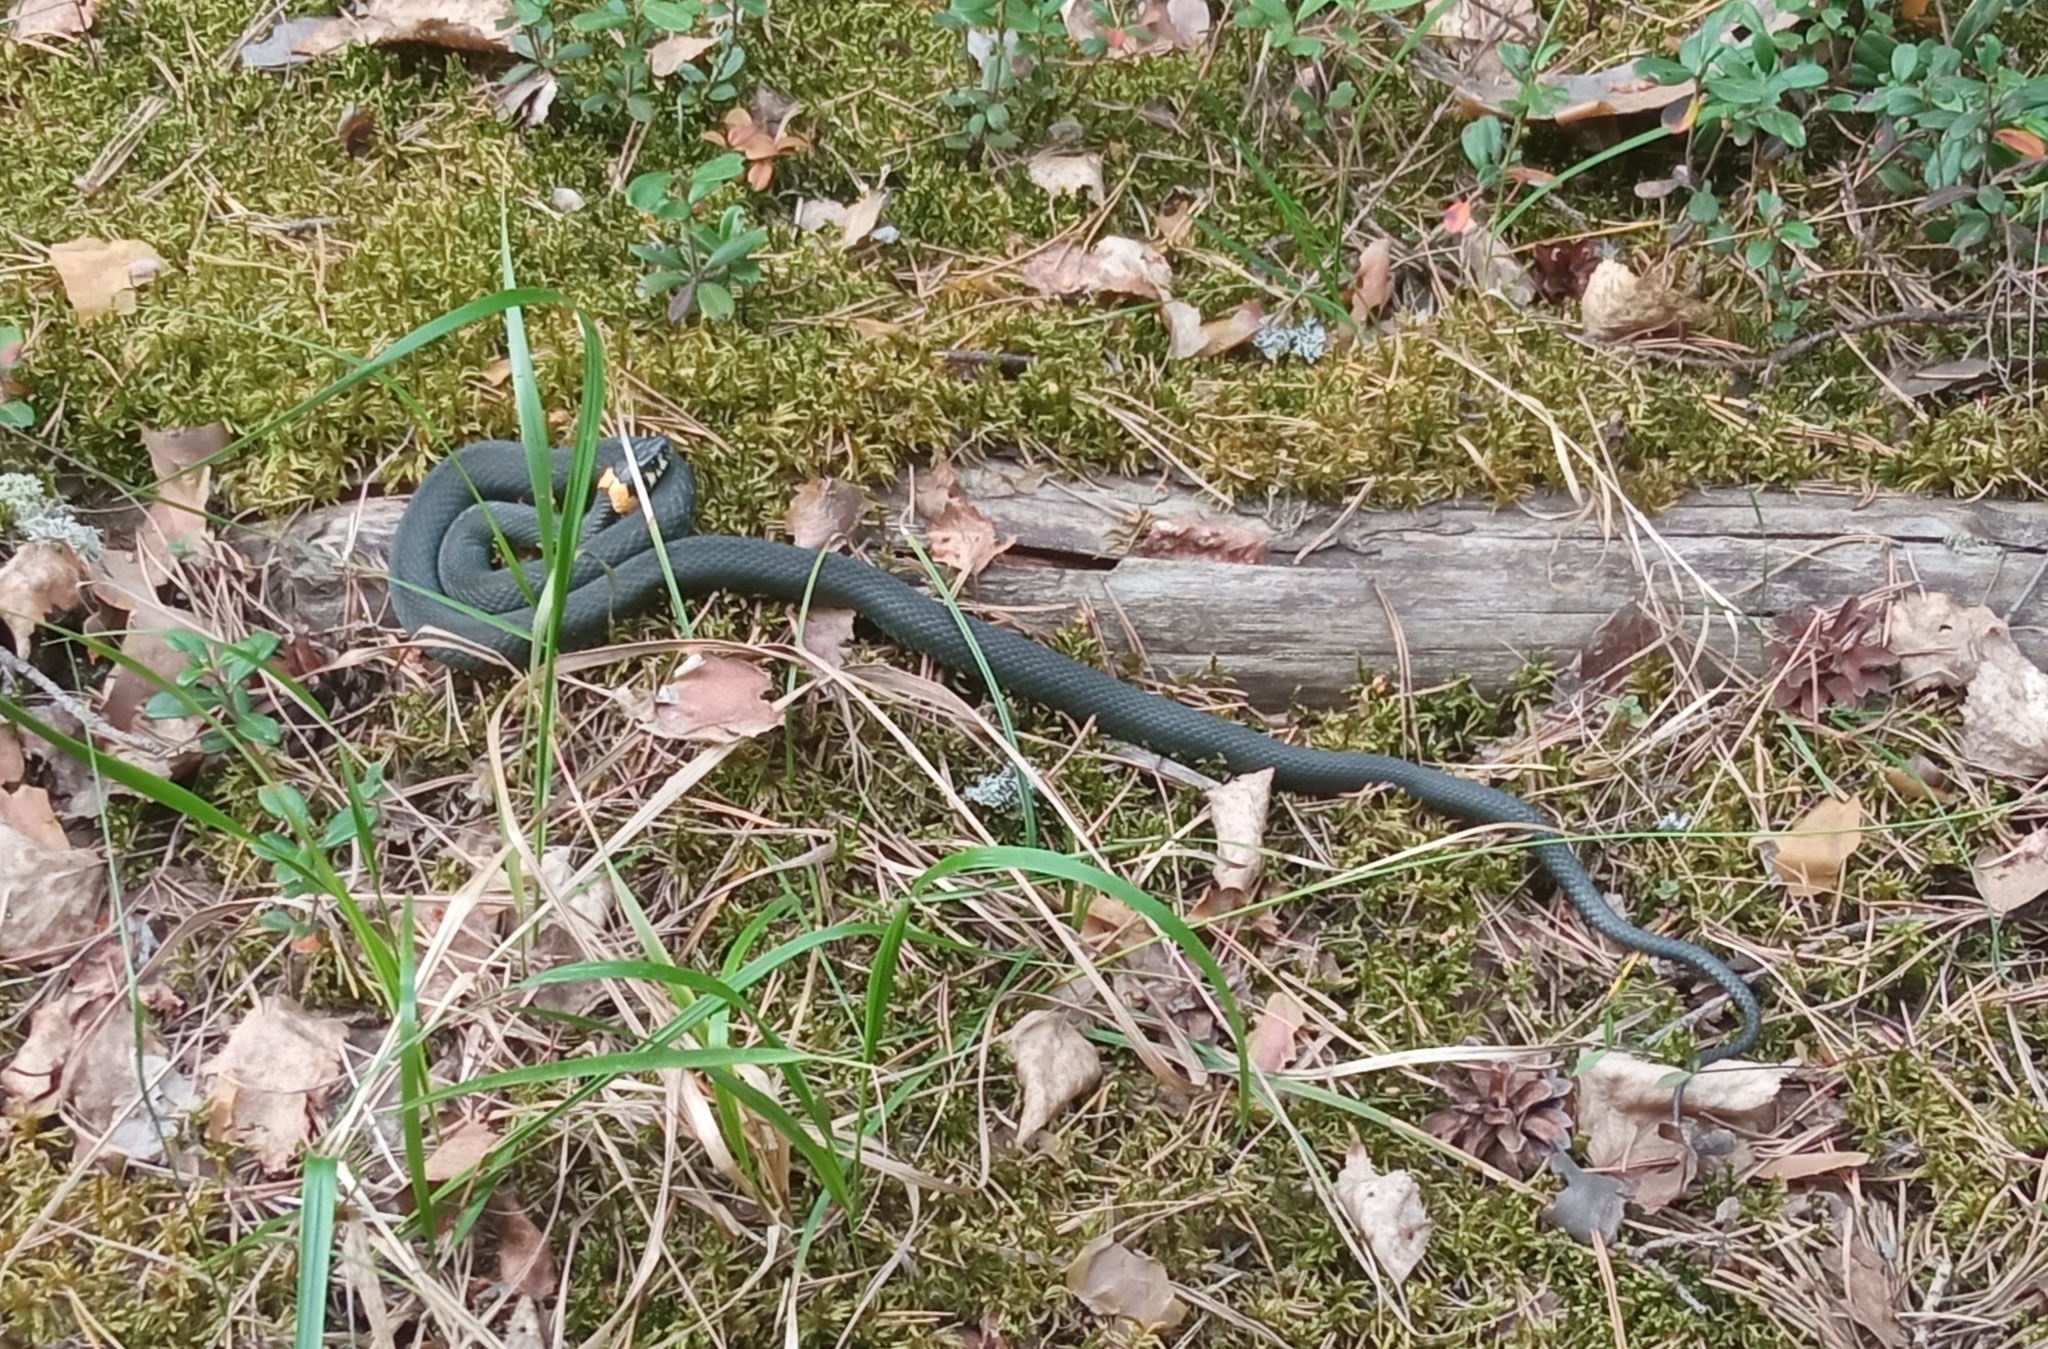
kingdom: Animalia
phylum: Chordata
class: Squamata
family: Colubridae
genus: Natrix
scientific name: Natrix natrix
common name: Grass snake
